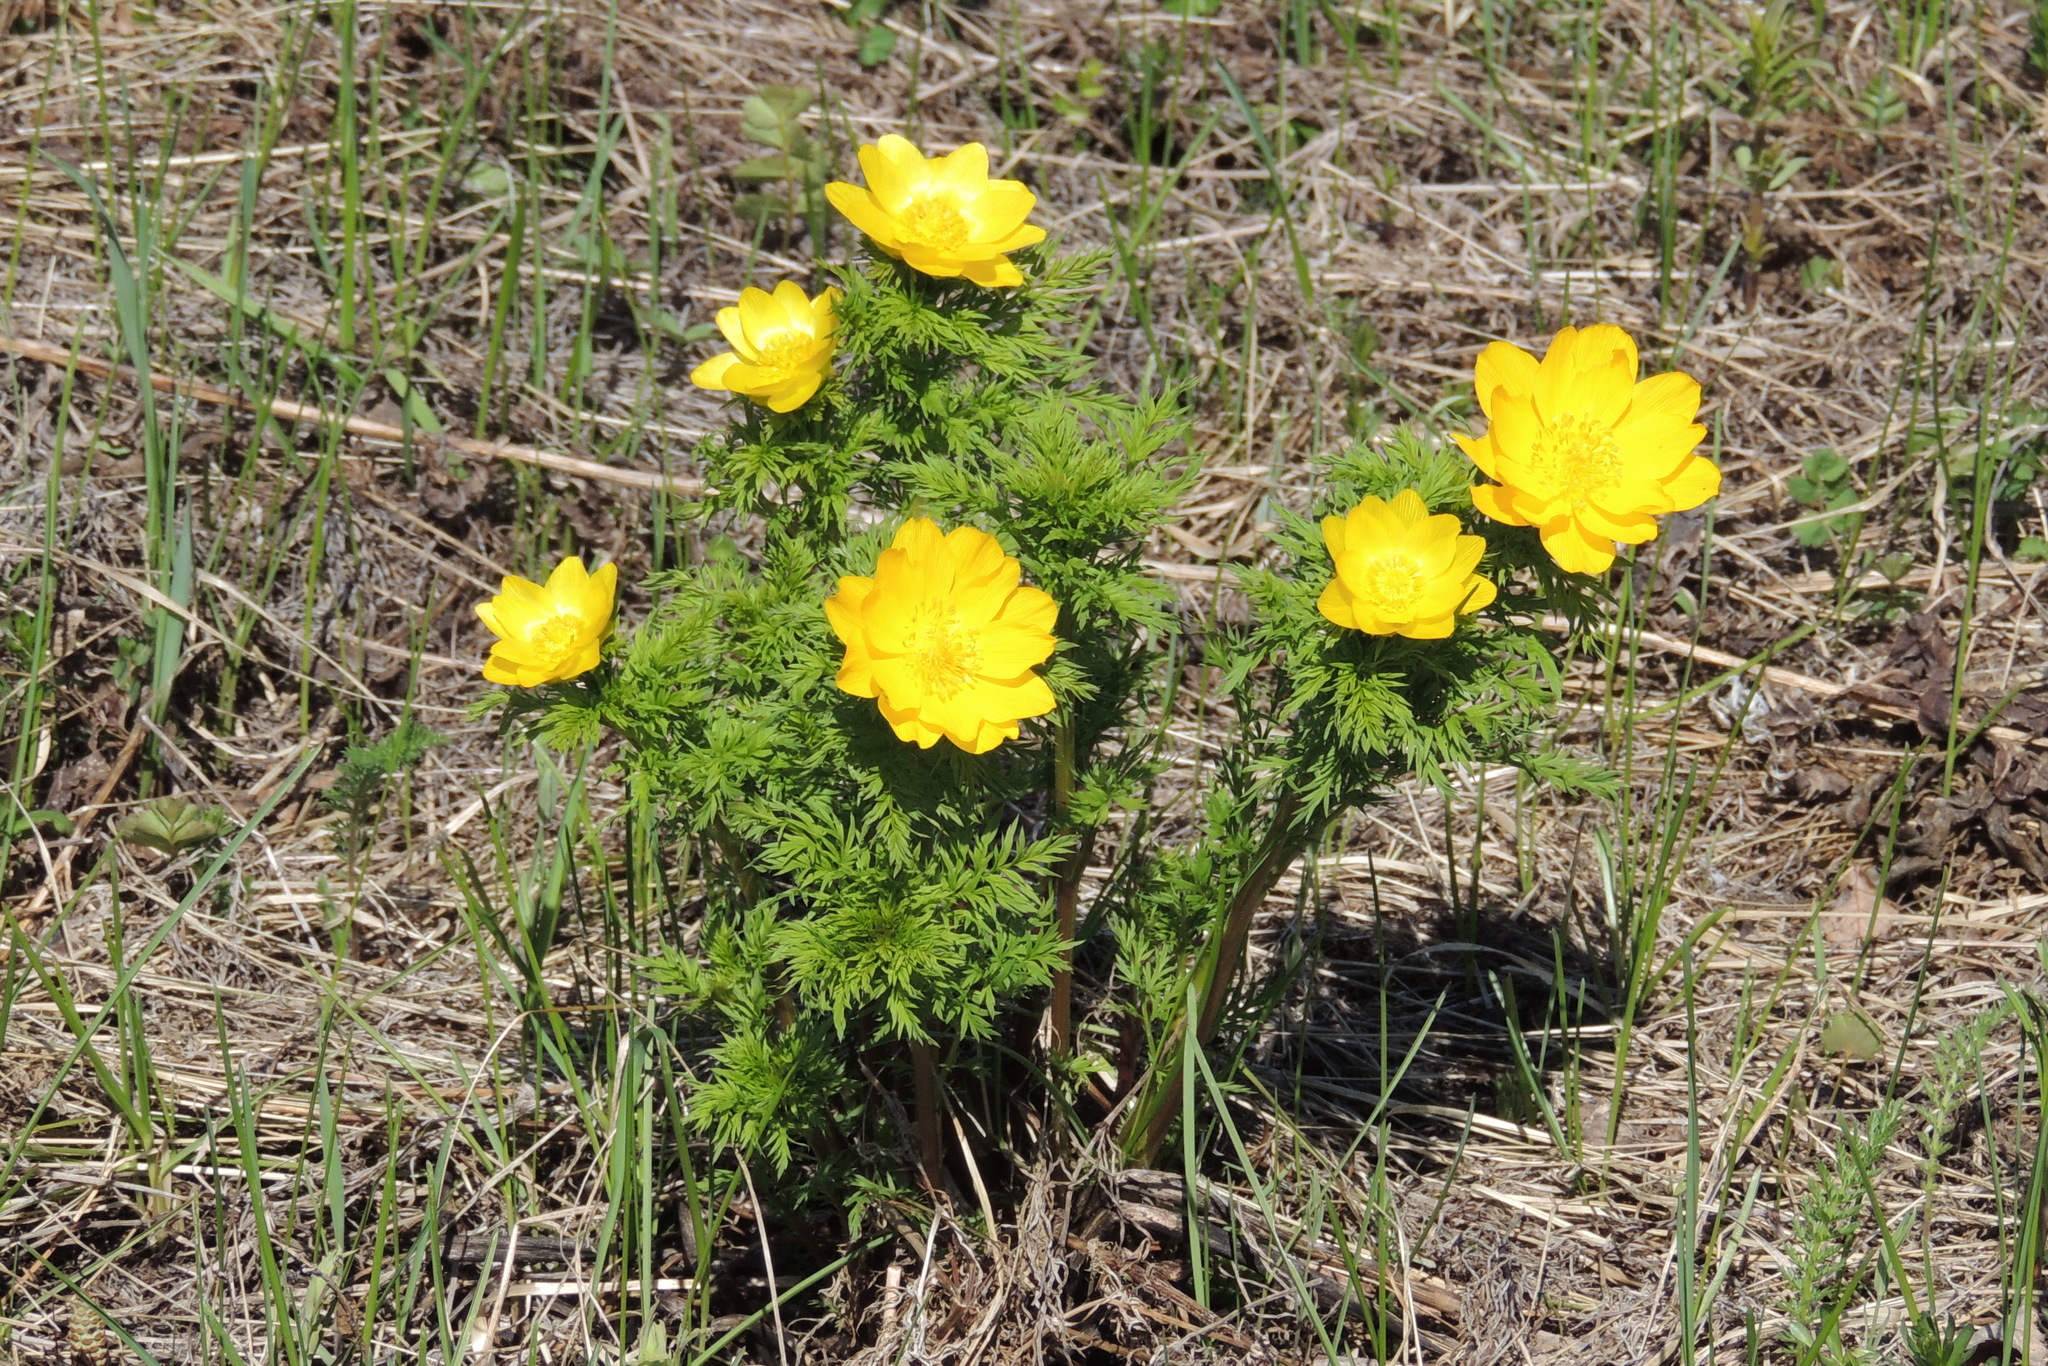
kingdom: Plantae
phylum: Tracheophyta
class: Magnoliopsida
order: Ranunculales
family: Ranunculaceae
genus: Adonis
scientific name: Adonis
